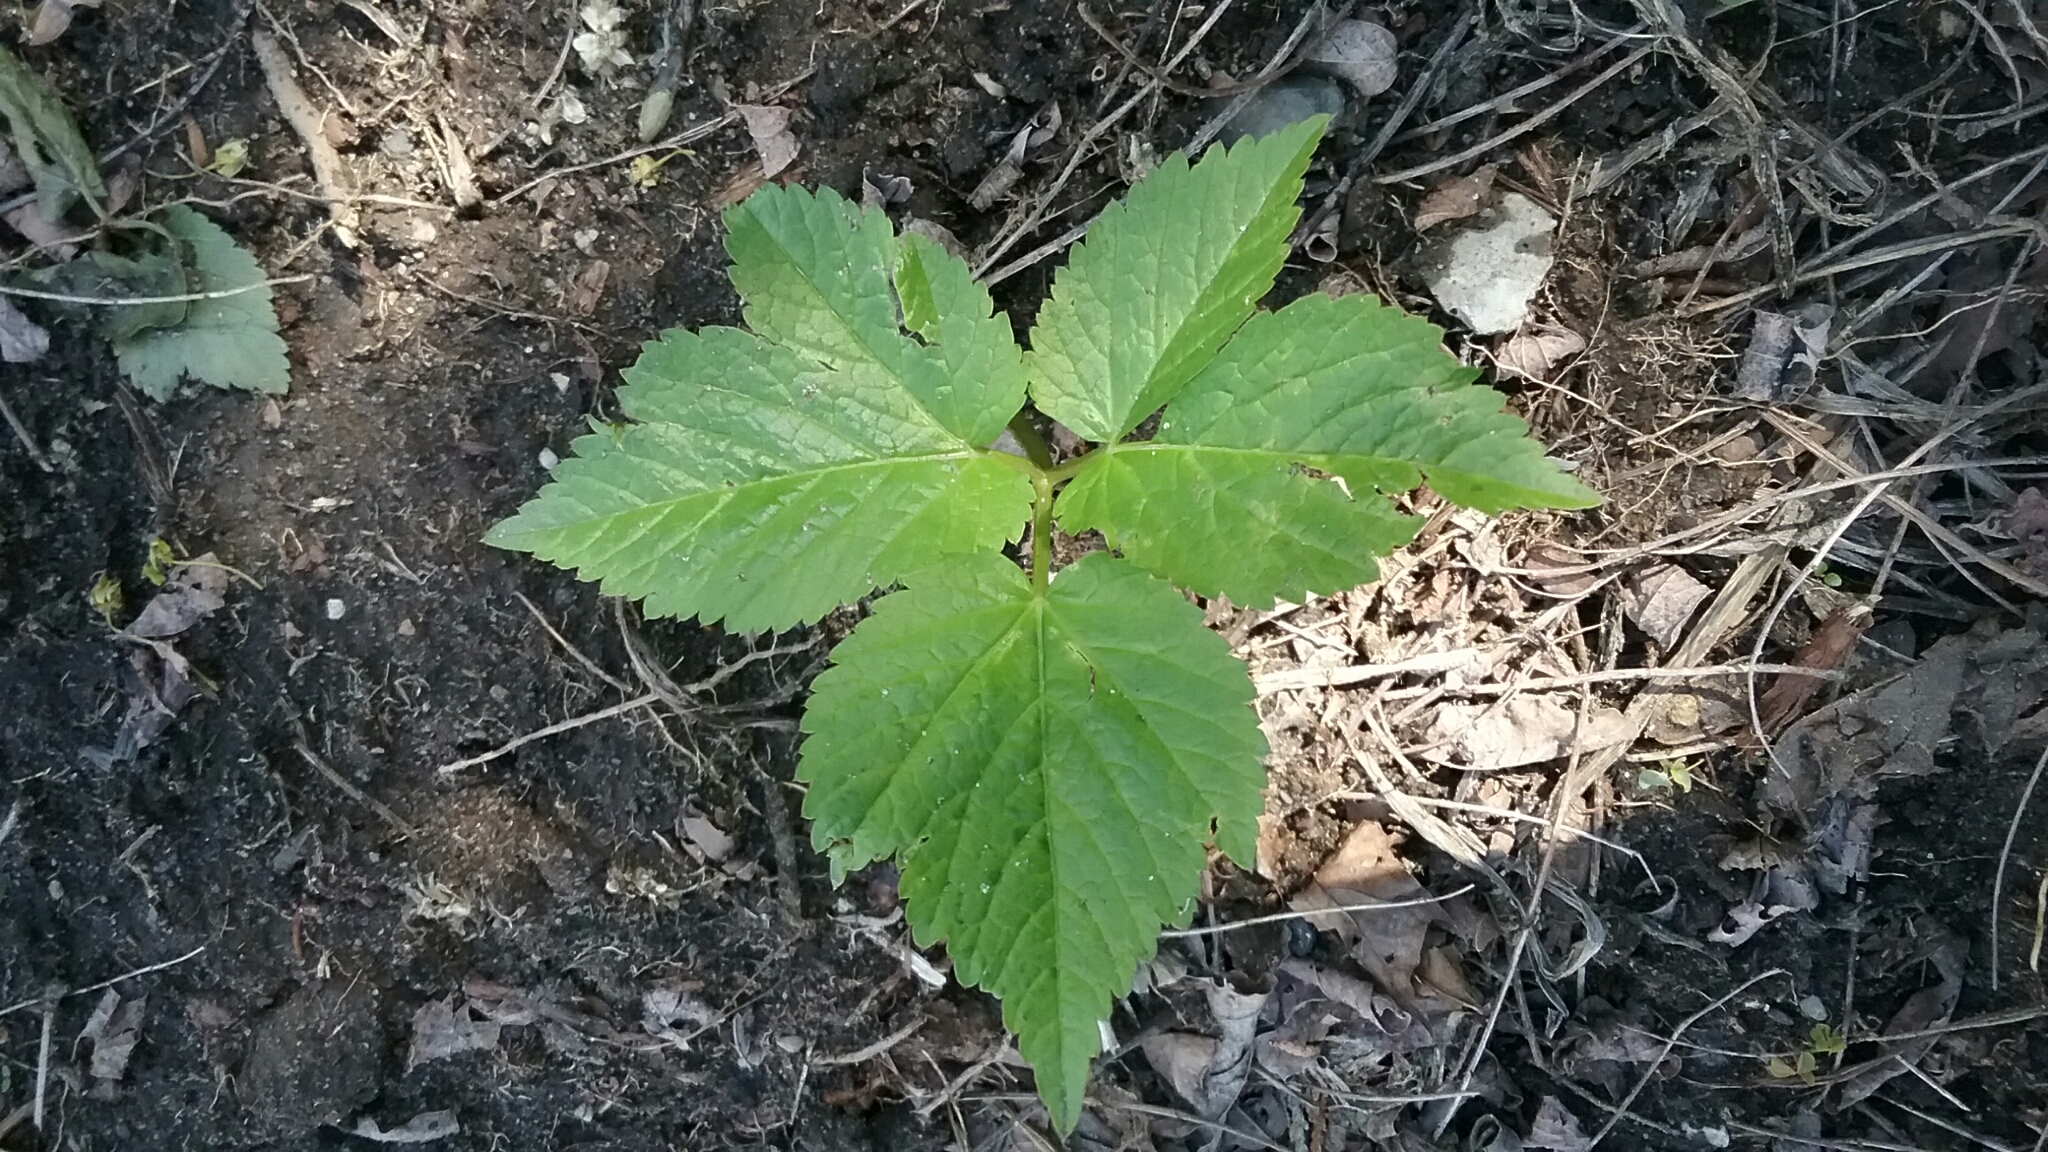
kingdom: Plantae
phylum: Tracheophyta
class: Magnoliopsida
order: Apiales
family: Apiaceae
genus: Aegopodium
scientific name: Aegopodium podagraria
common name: Ground-elder
